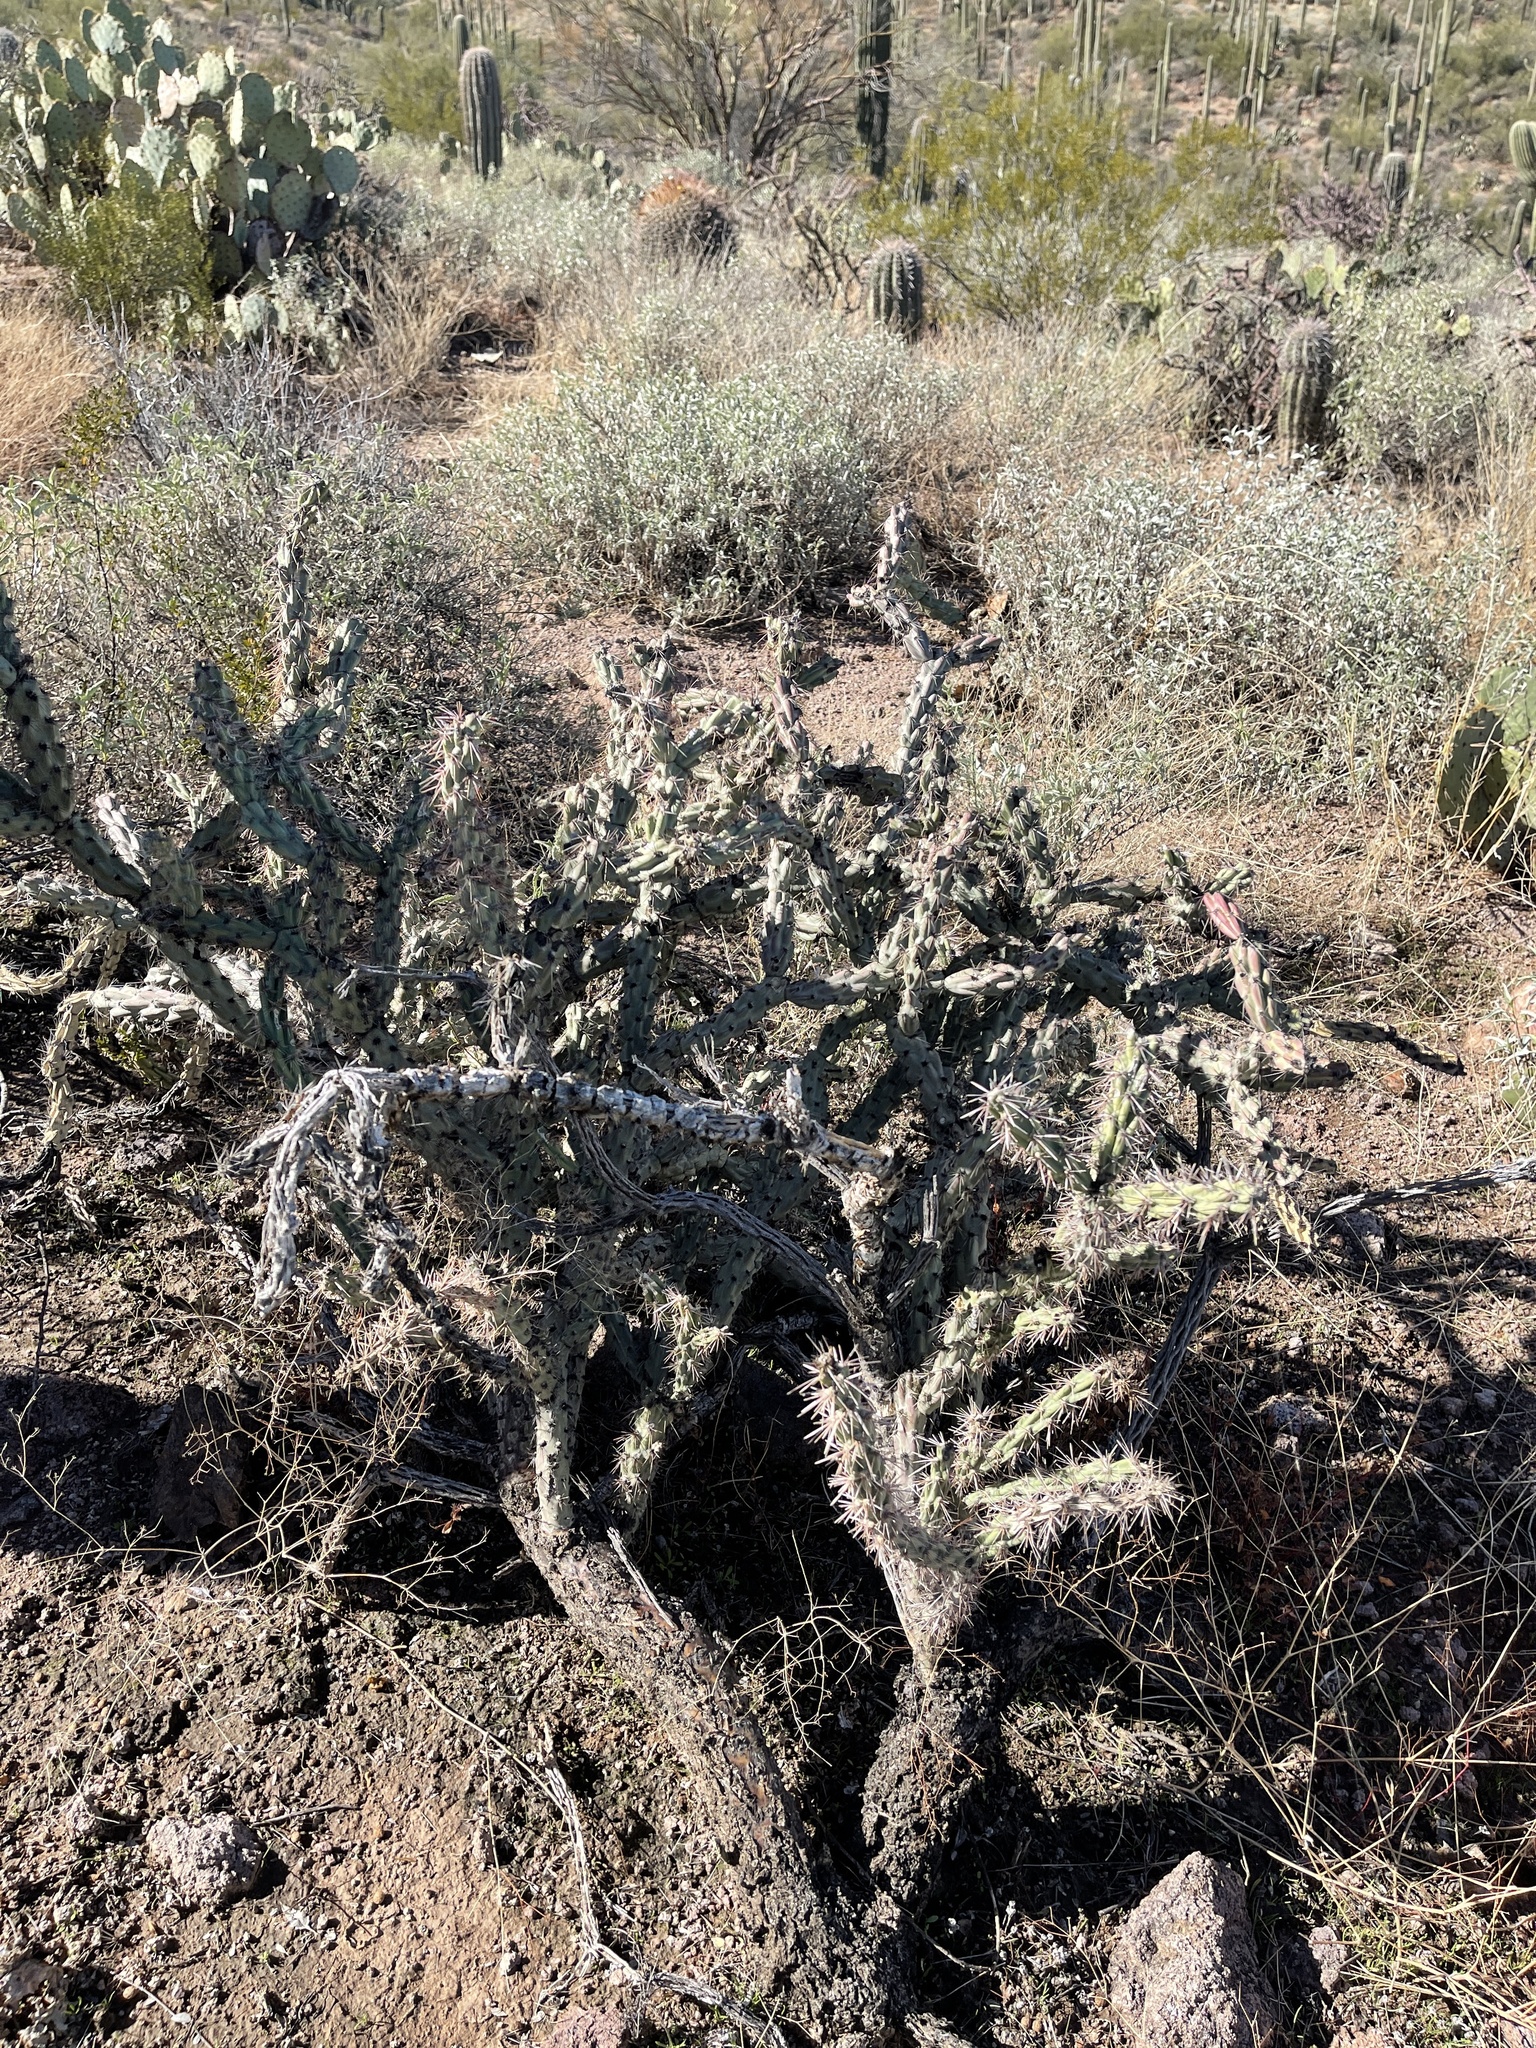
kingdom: Plantae
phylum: Tracheophyta
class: Magnoliopsida
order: Caryophyllales
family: Cactaceae
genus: Cylindropuntia
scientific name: Cylindropuntia thurberi
